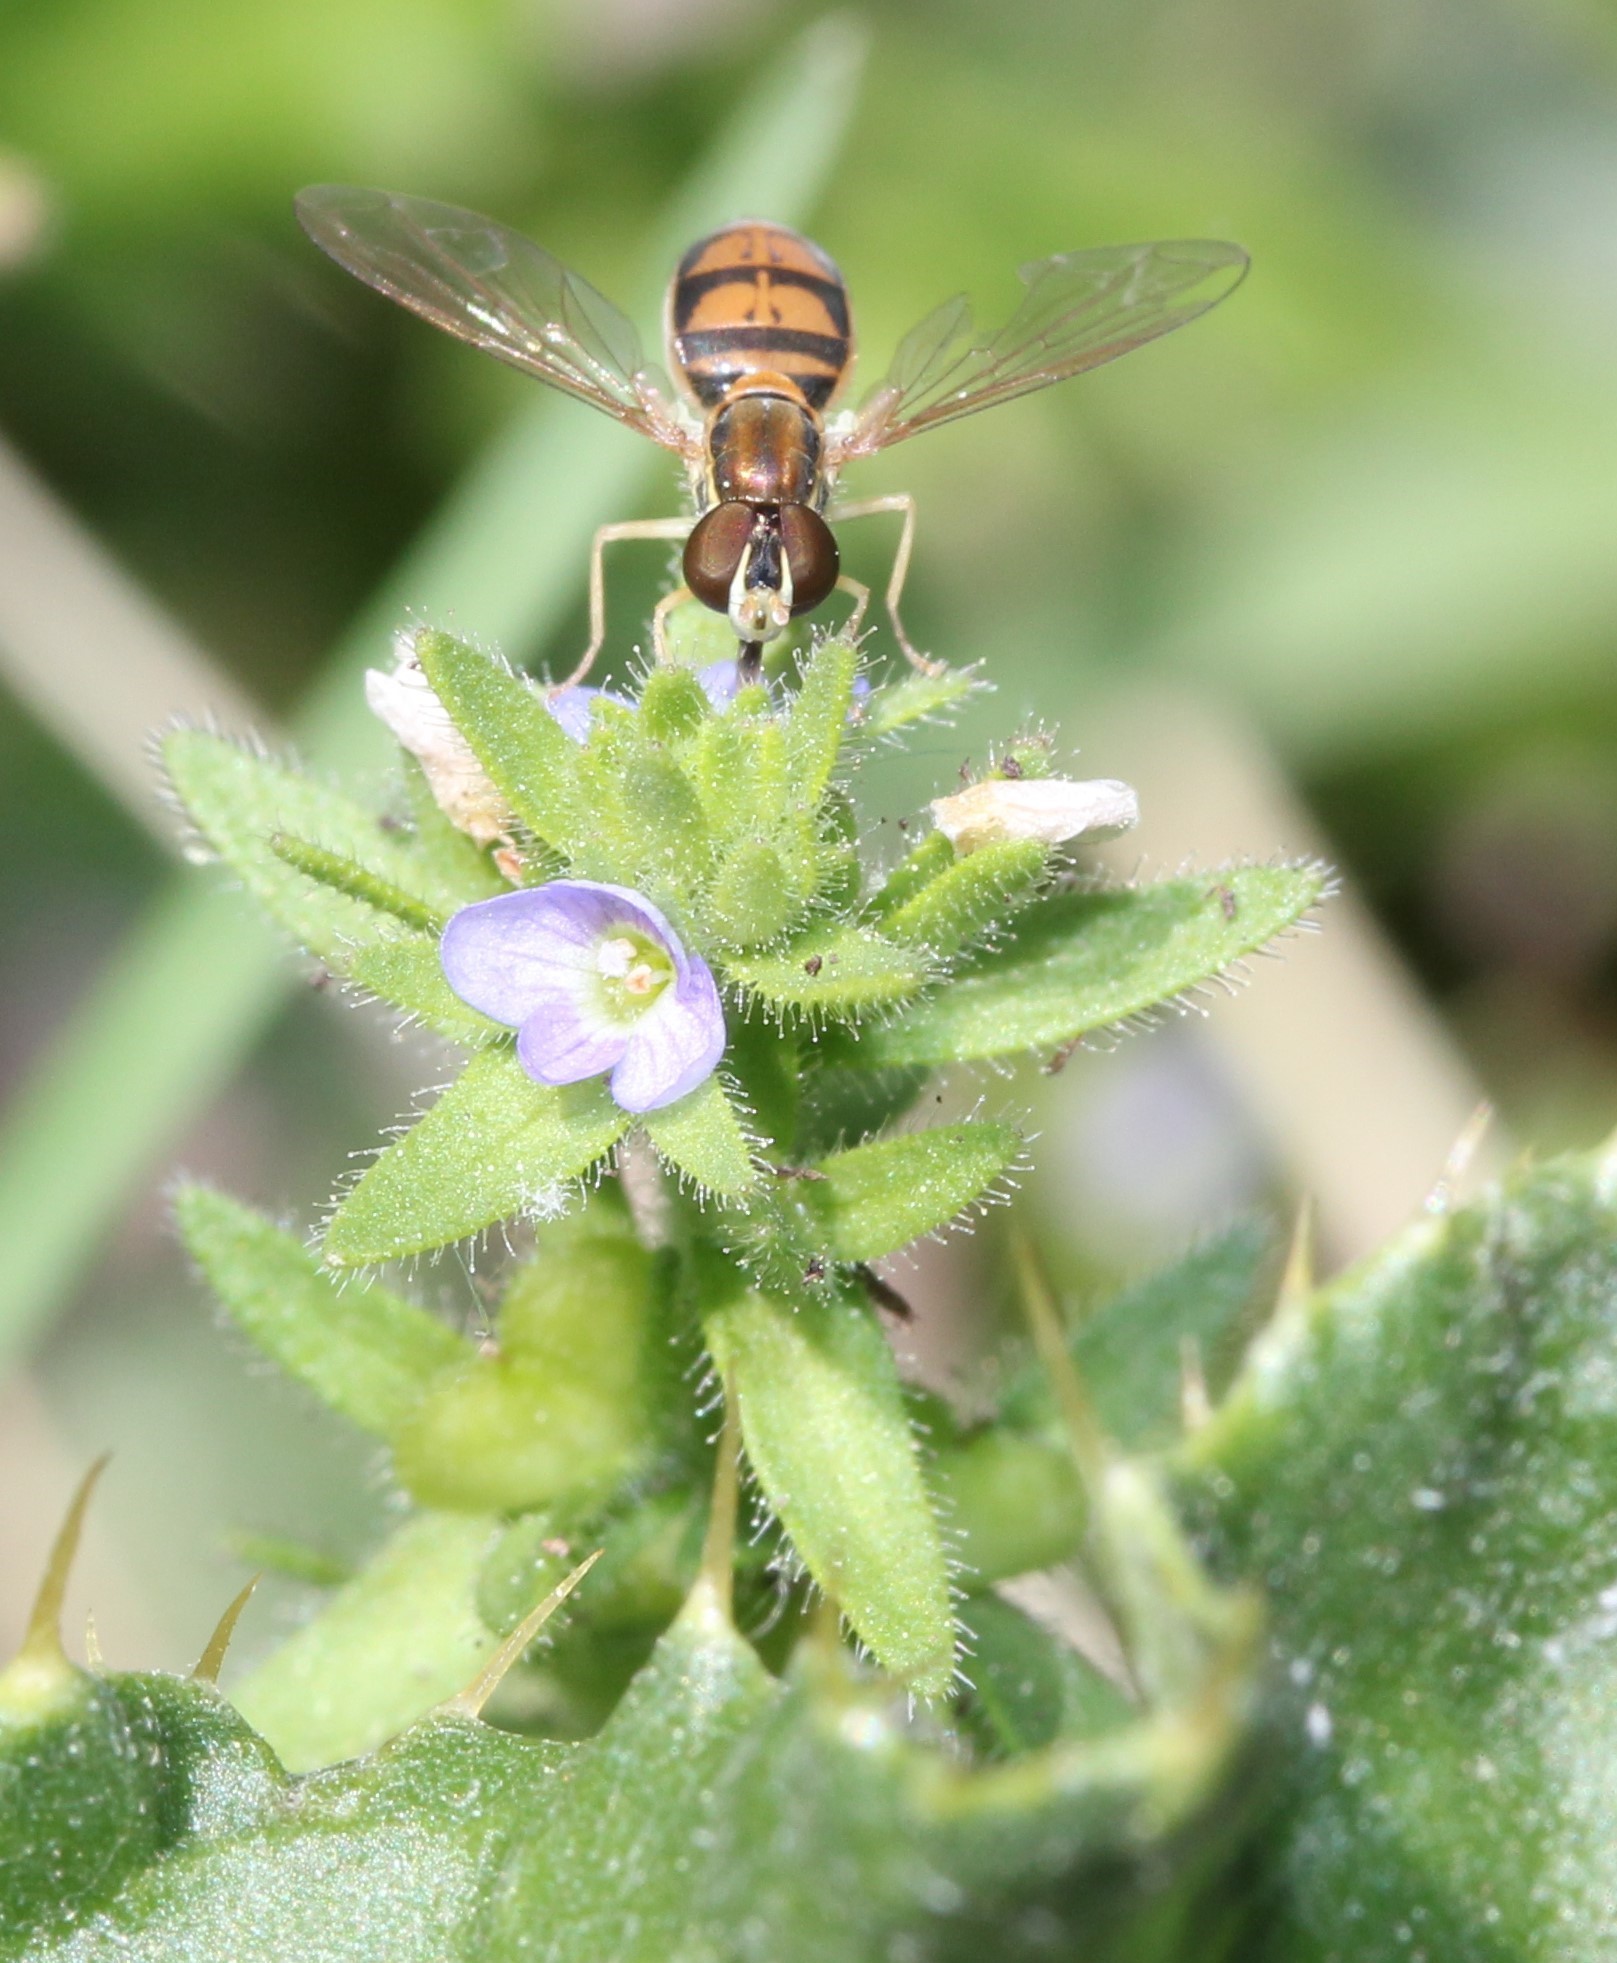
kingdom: Plantae
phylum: Tracheophyta
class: Magnoliopsida
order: Lamiales
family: Plantaginaceae
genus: Veronica
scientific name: Veronica arvensis
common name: Corn speedwell
